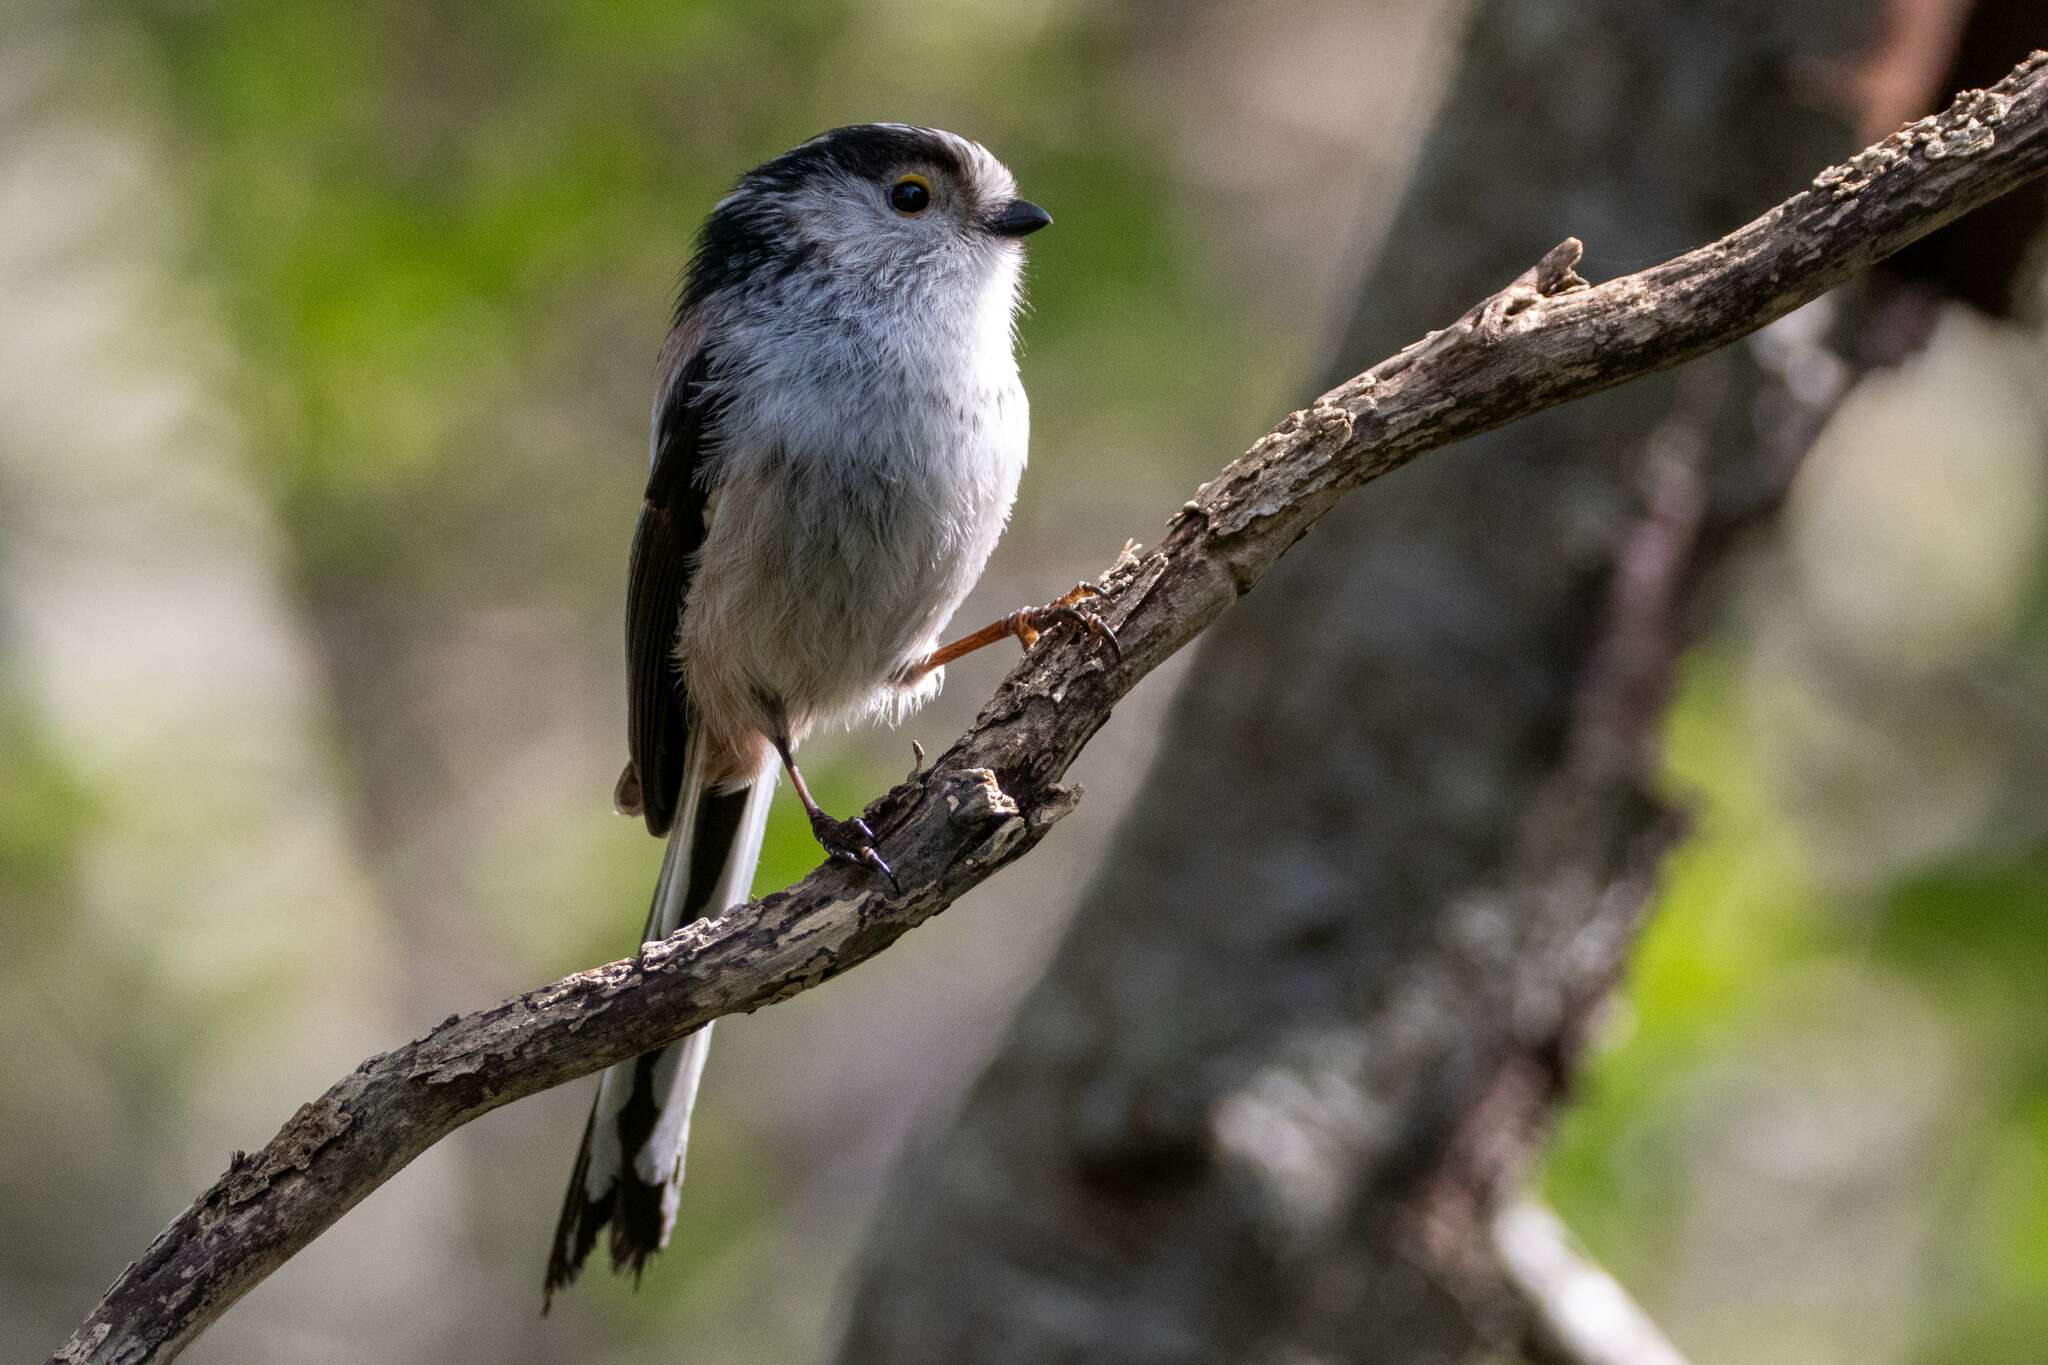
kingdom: Animalia
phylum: Chordata
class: Aves
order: Passeriformes
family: Aegithalidae
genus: Aegithalos
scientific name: Aegithalos caudatus
